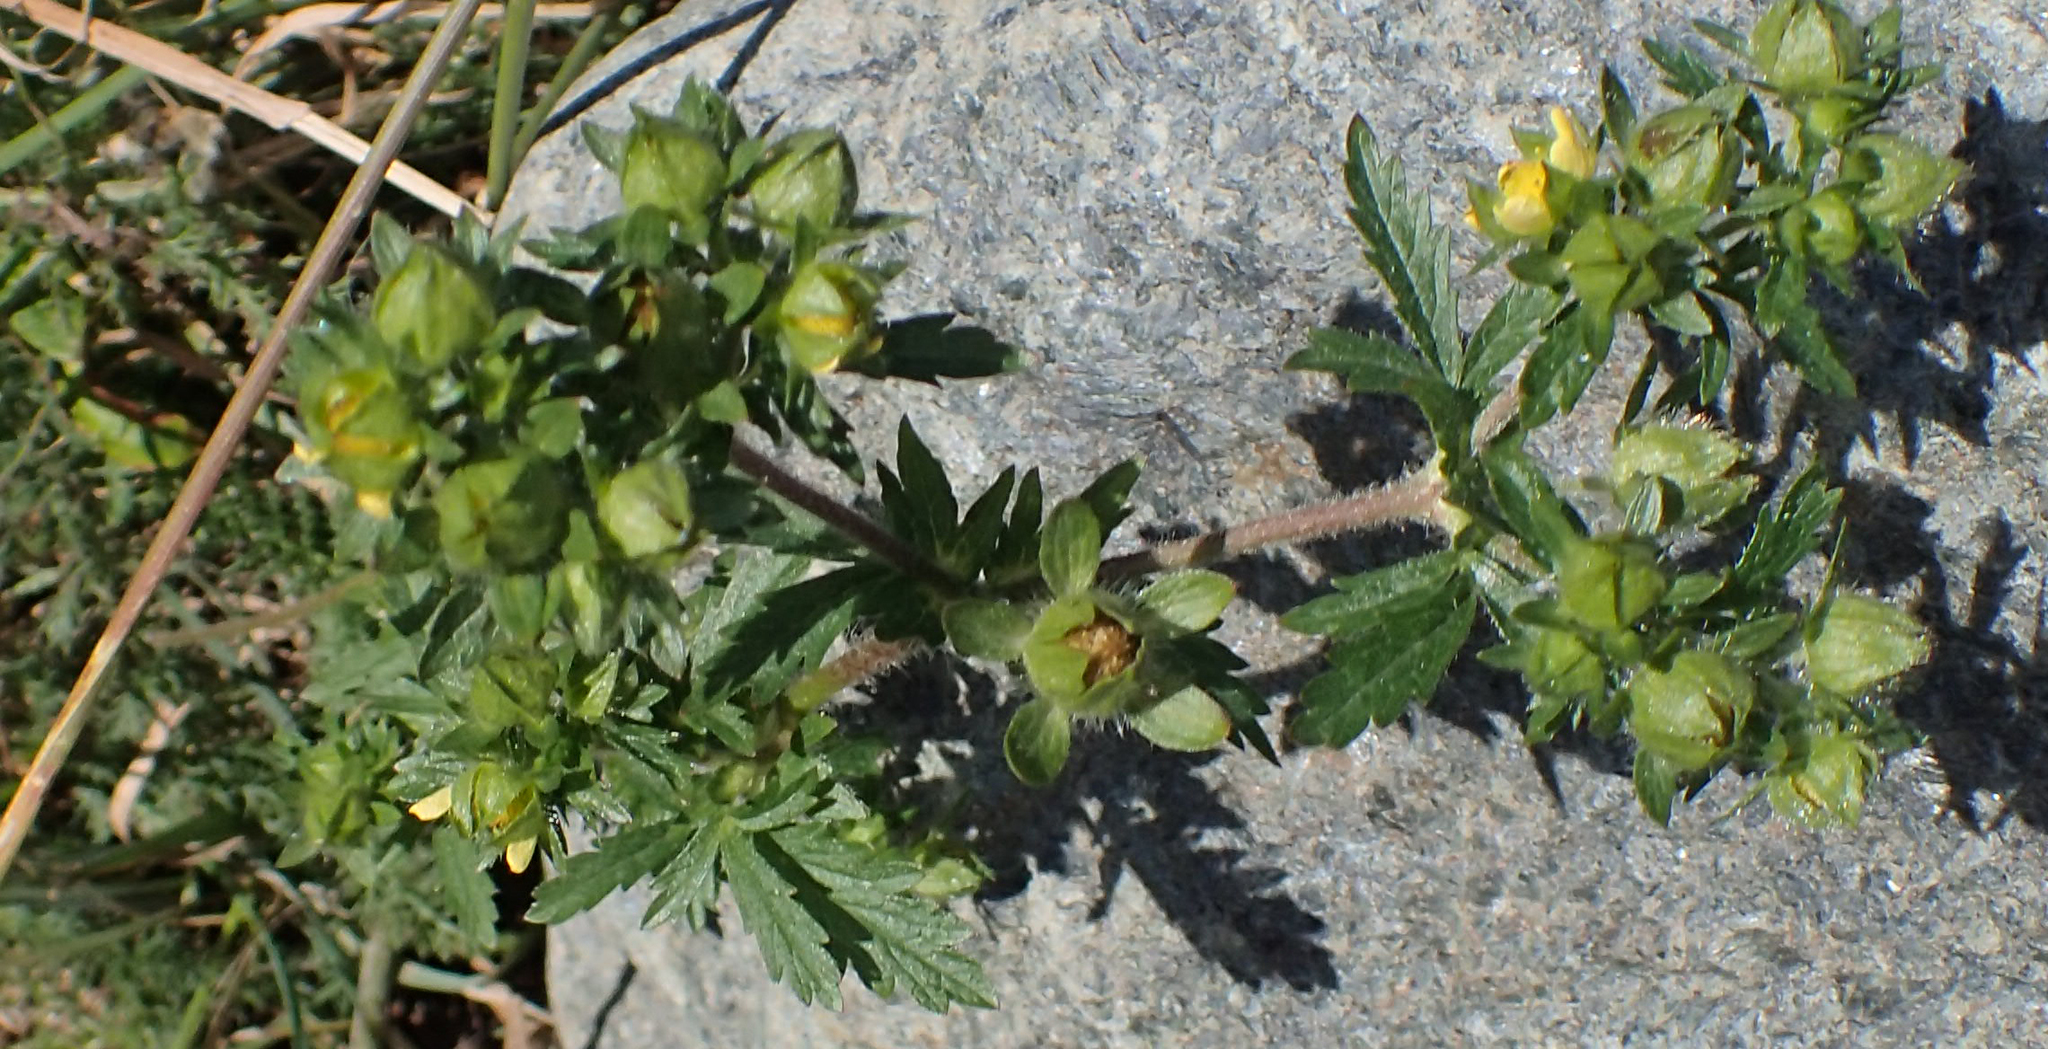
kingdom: Plantae
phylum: Tracheophyta
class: Magnoliopsida
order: Rosales
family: Rosaceae
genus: Potentilla
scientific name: Potentilla norvegica
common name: Ternate-leaved cinquefoil
